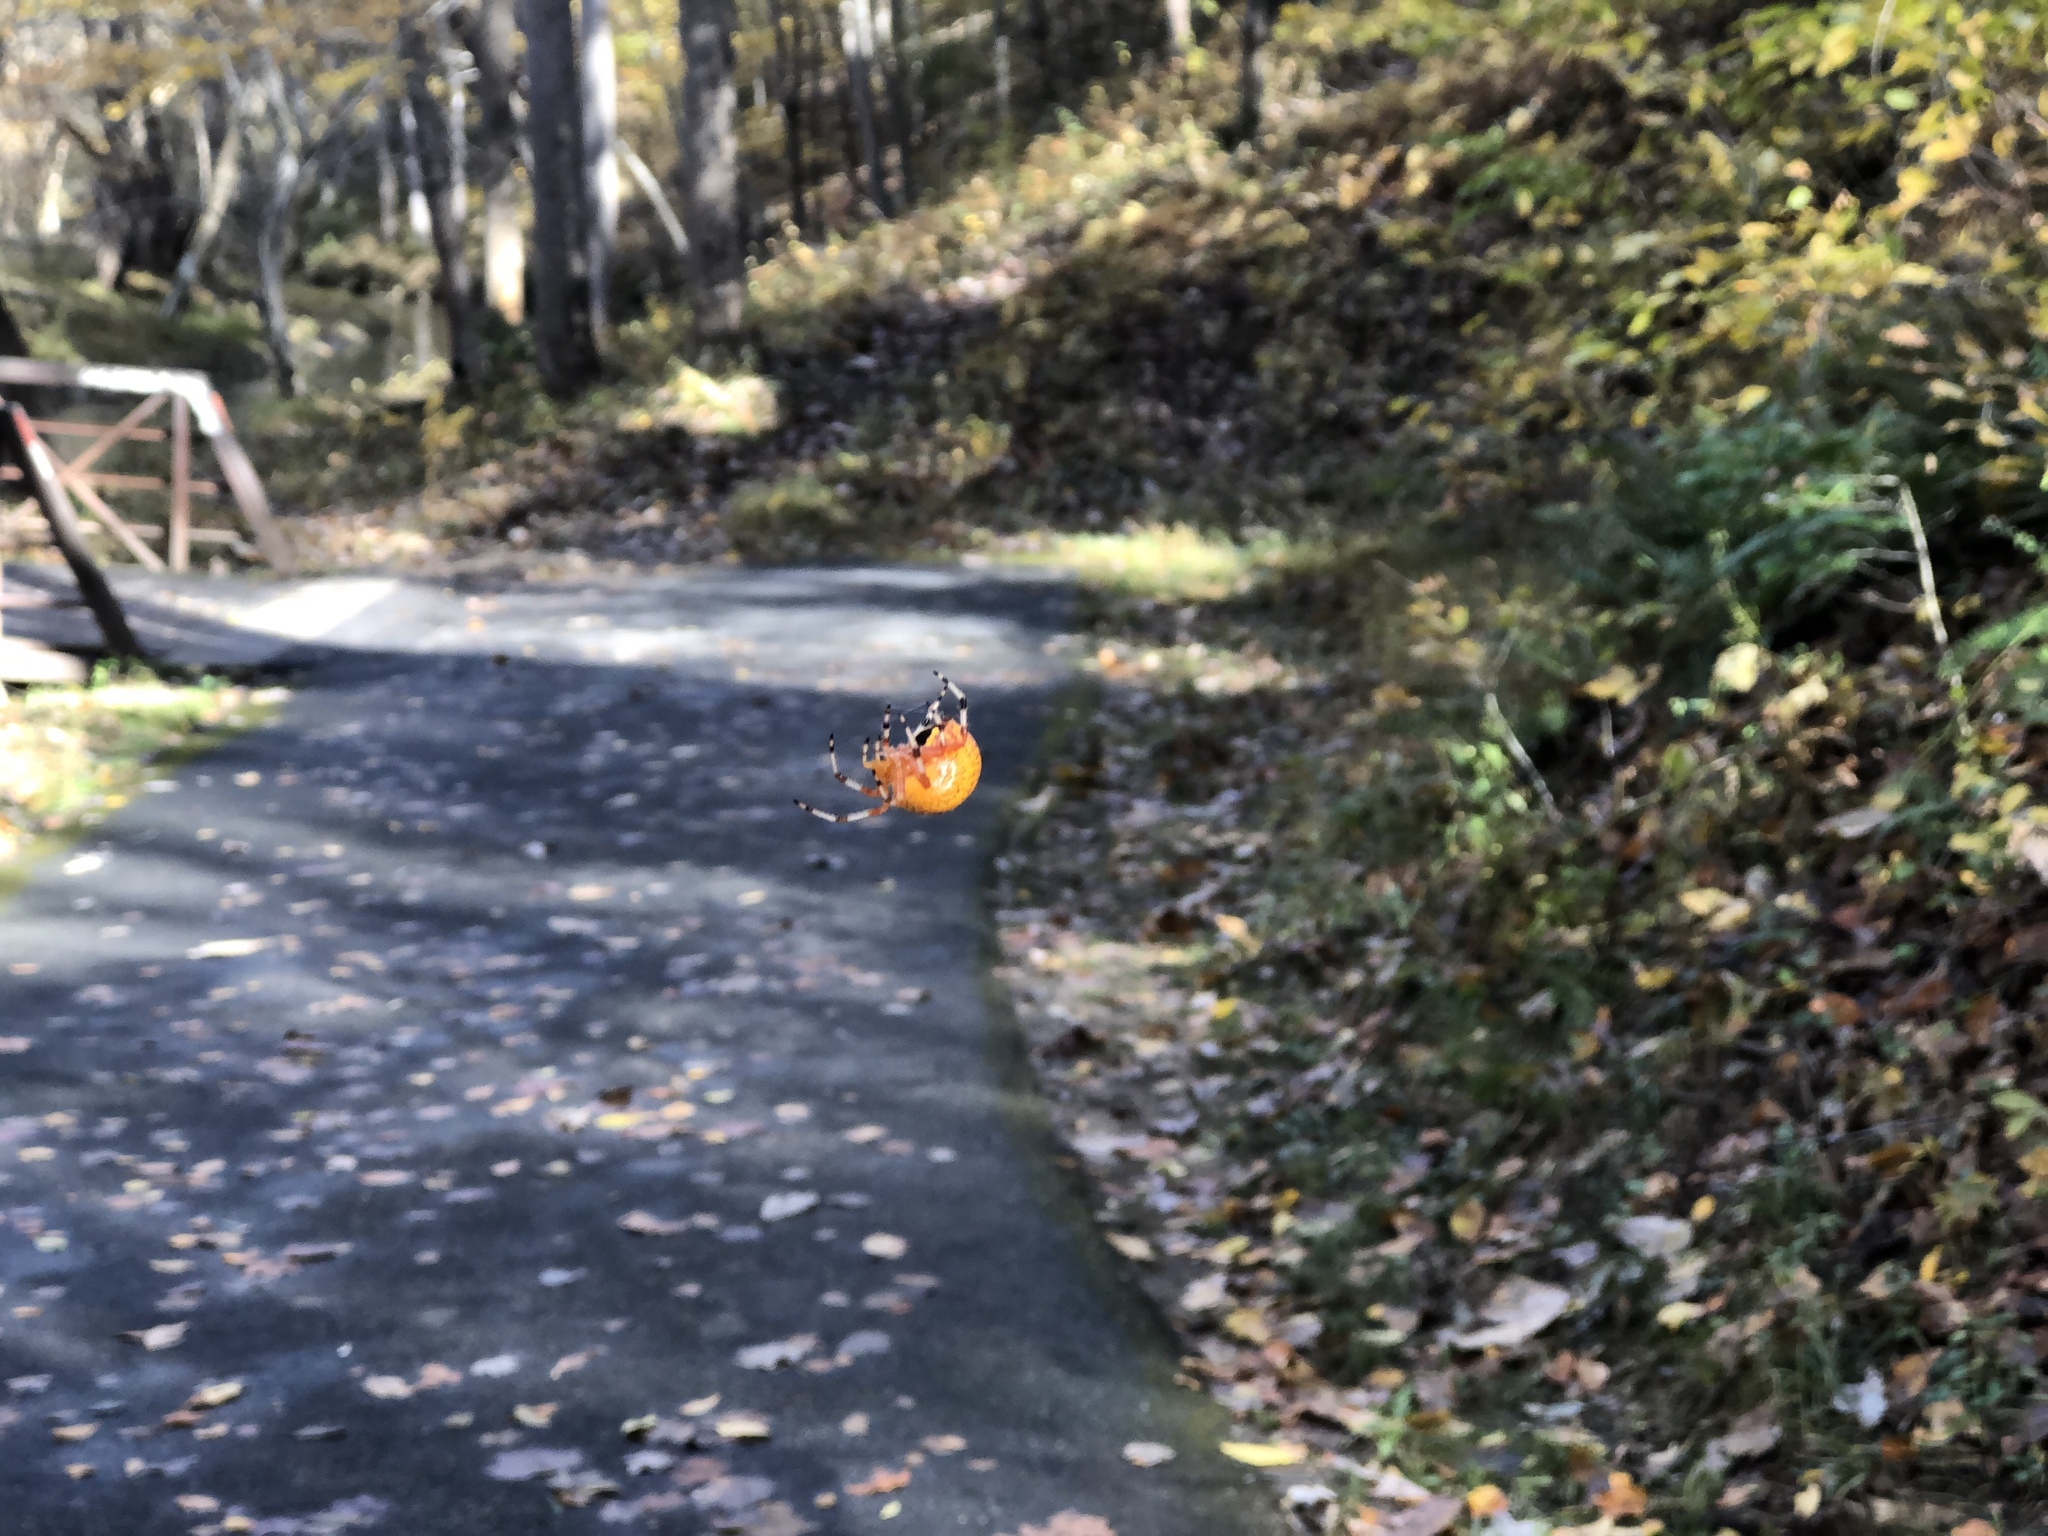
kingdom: Animalia
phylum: Arthropoda
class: Arachnida
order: Araneae
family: Araneidae
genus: Araneus
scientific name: Araneus marmoreus
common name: Marbled orbweaver
